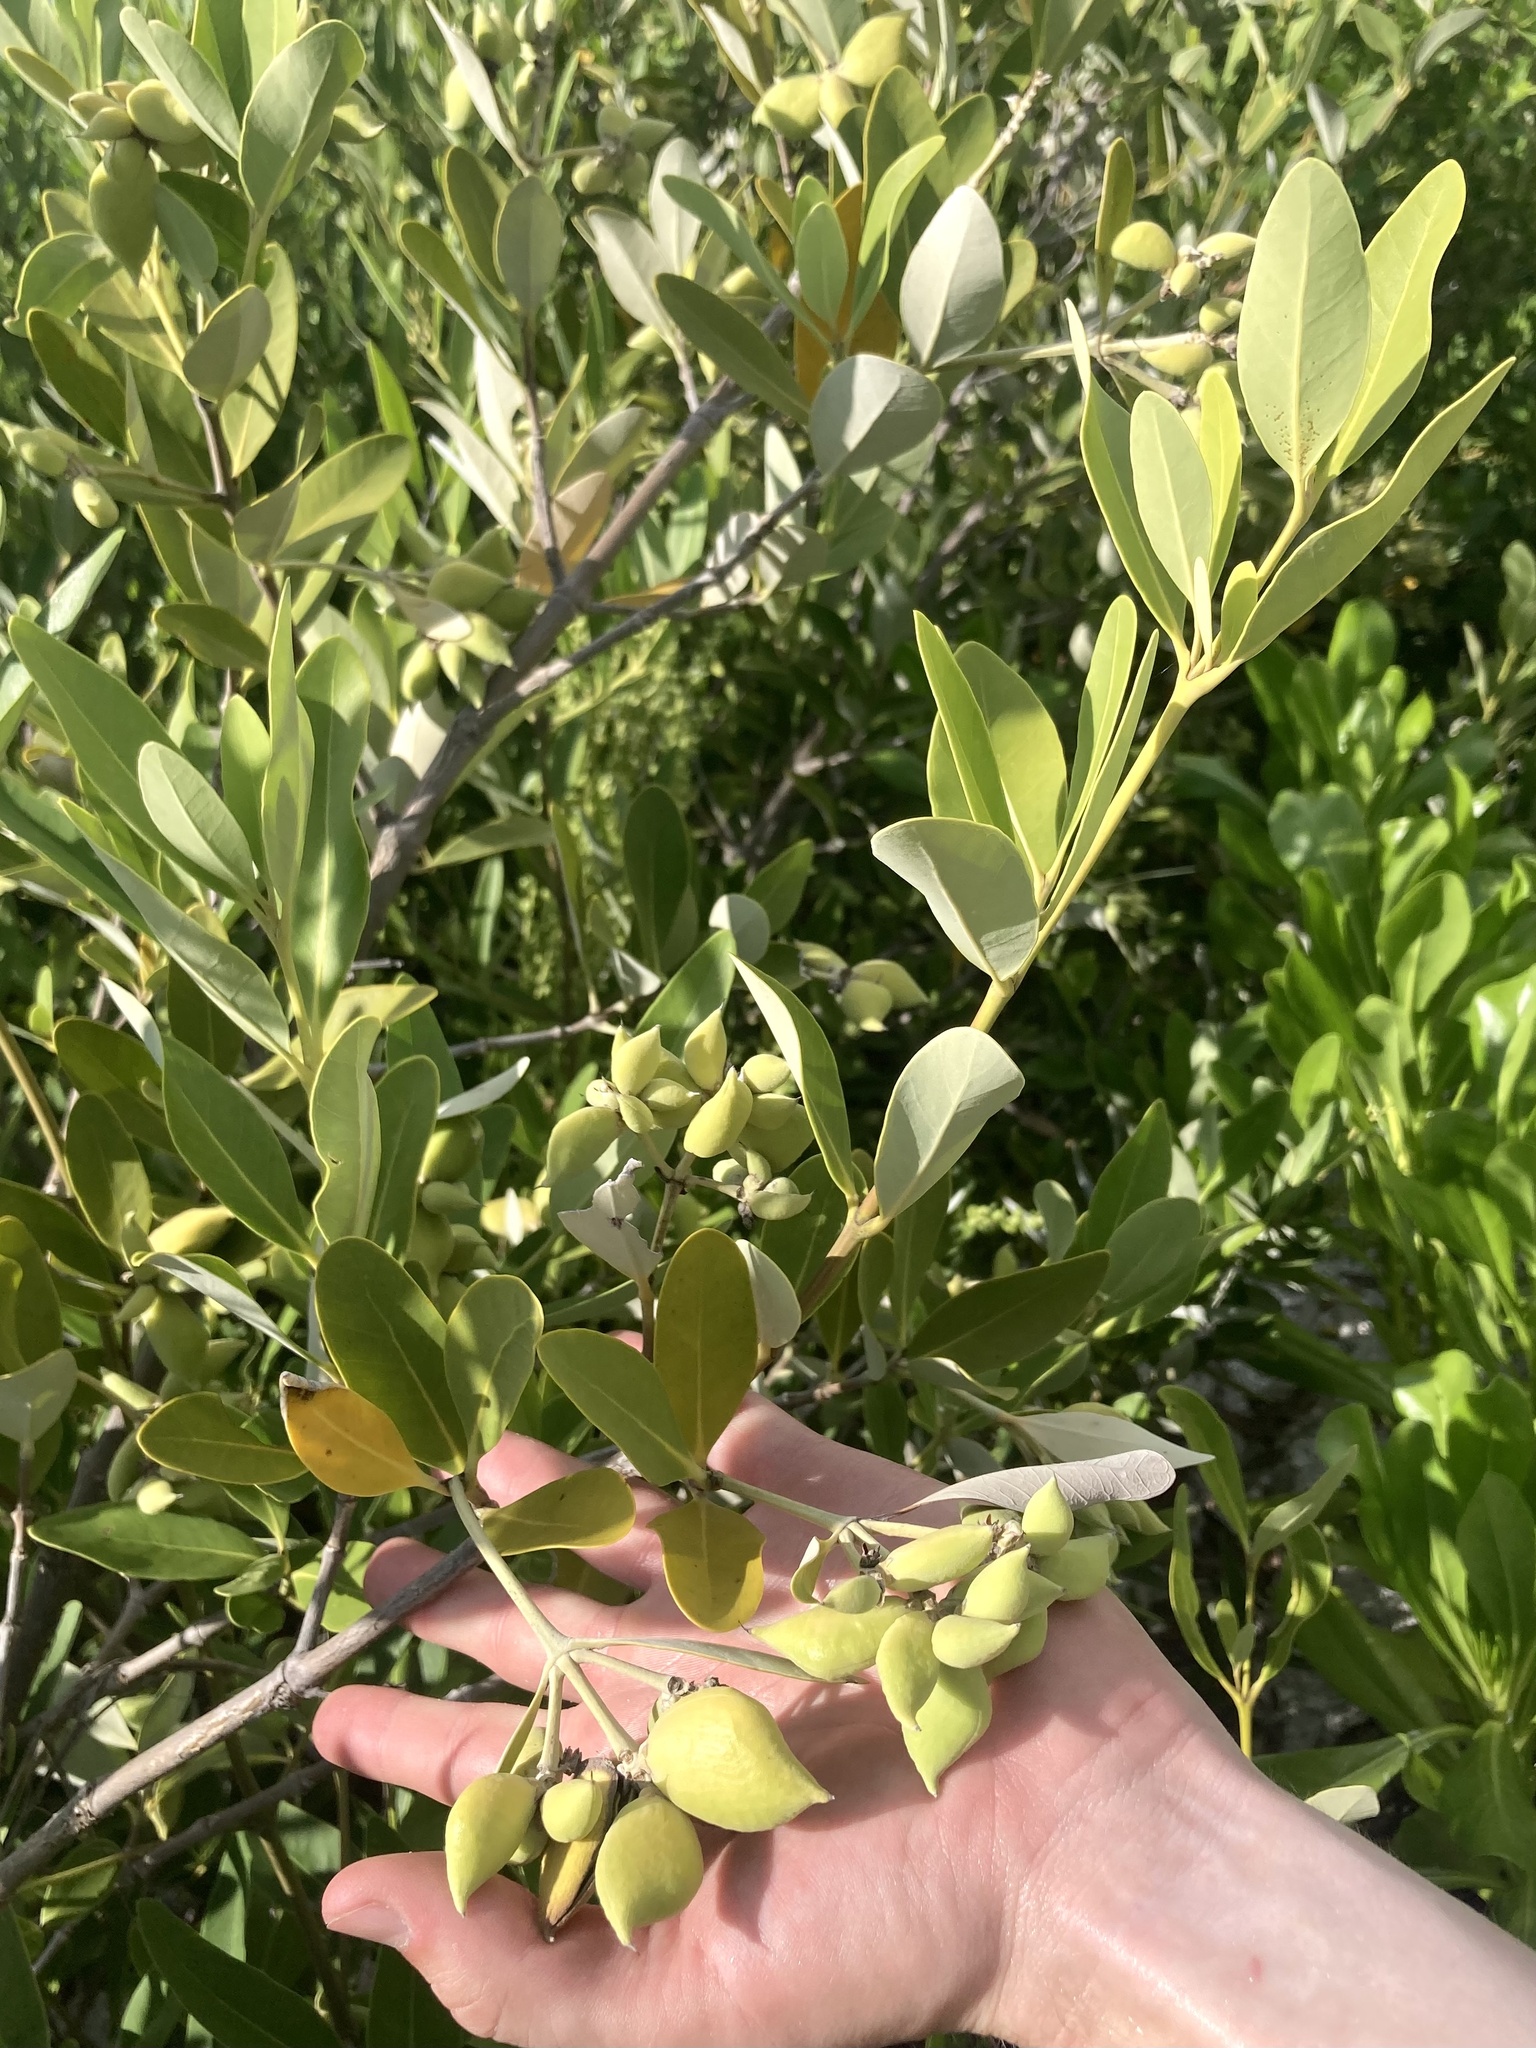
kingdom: Plantae
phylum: Tracheophyta
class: Magnoliopsida
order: Lamiales
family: Acanthaceae
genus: Avicennia
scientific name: Avicennia germinans
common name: Black mangrove
